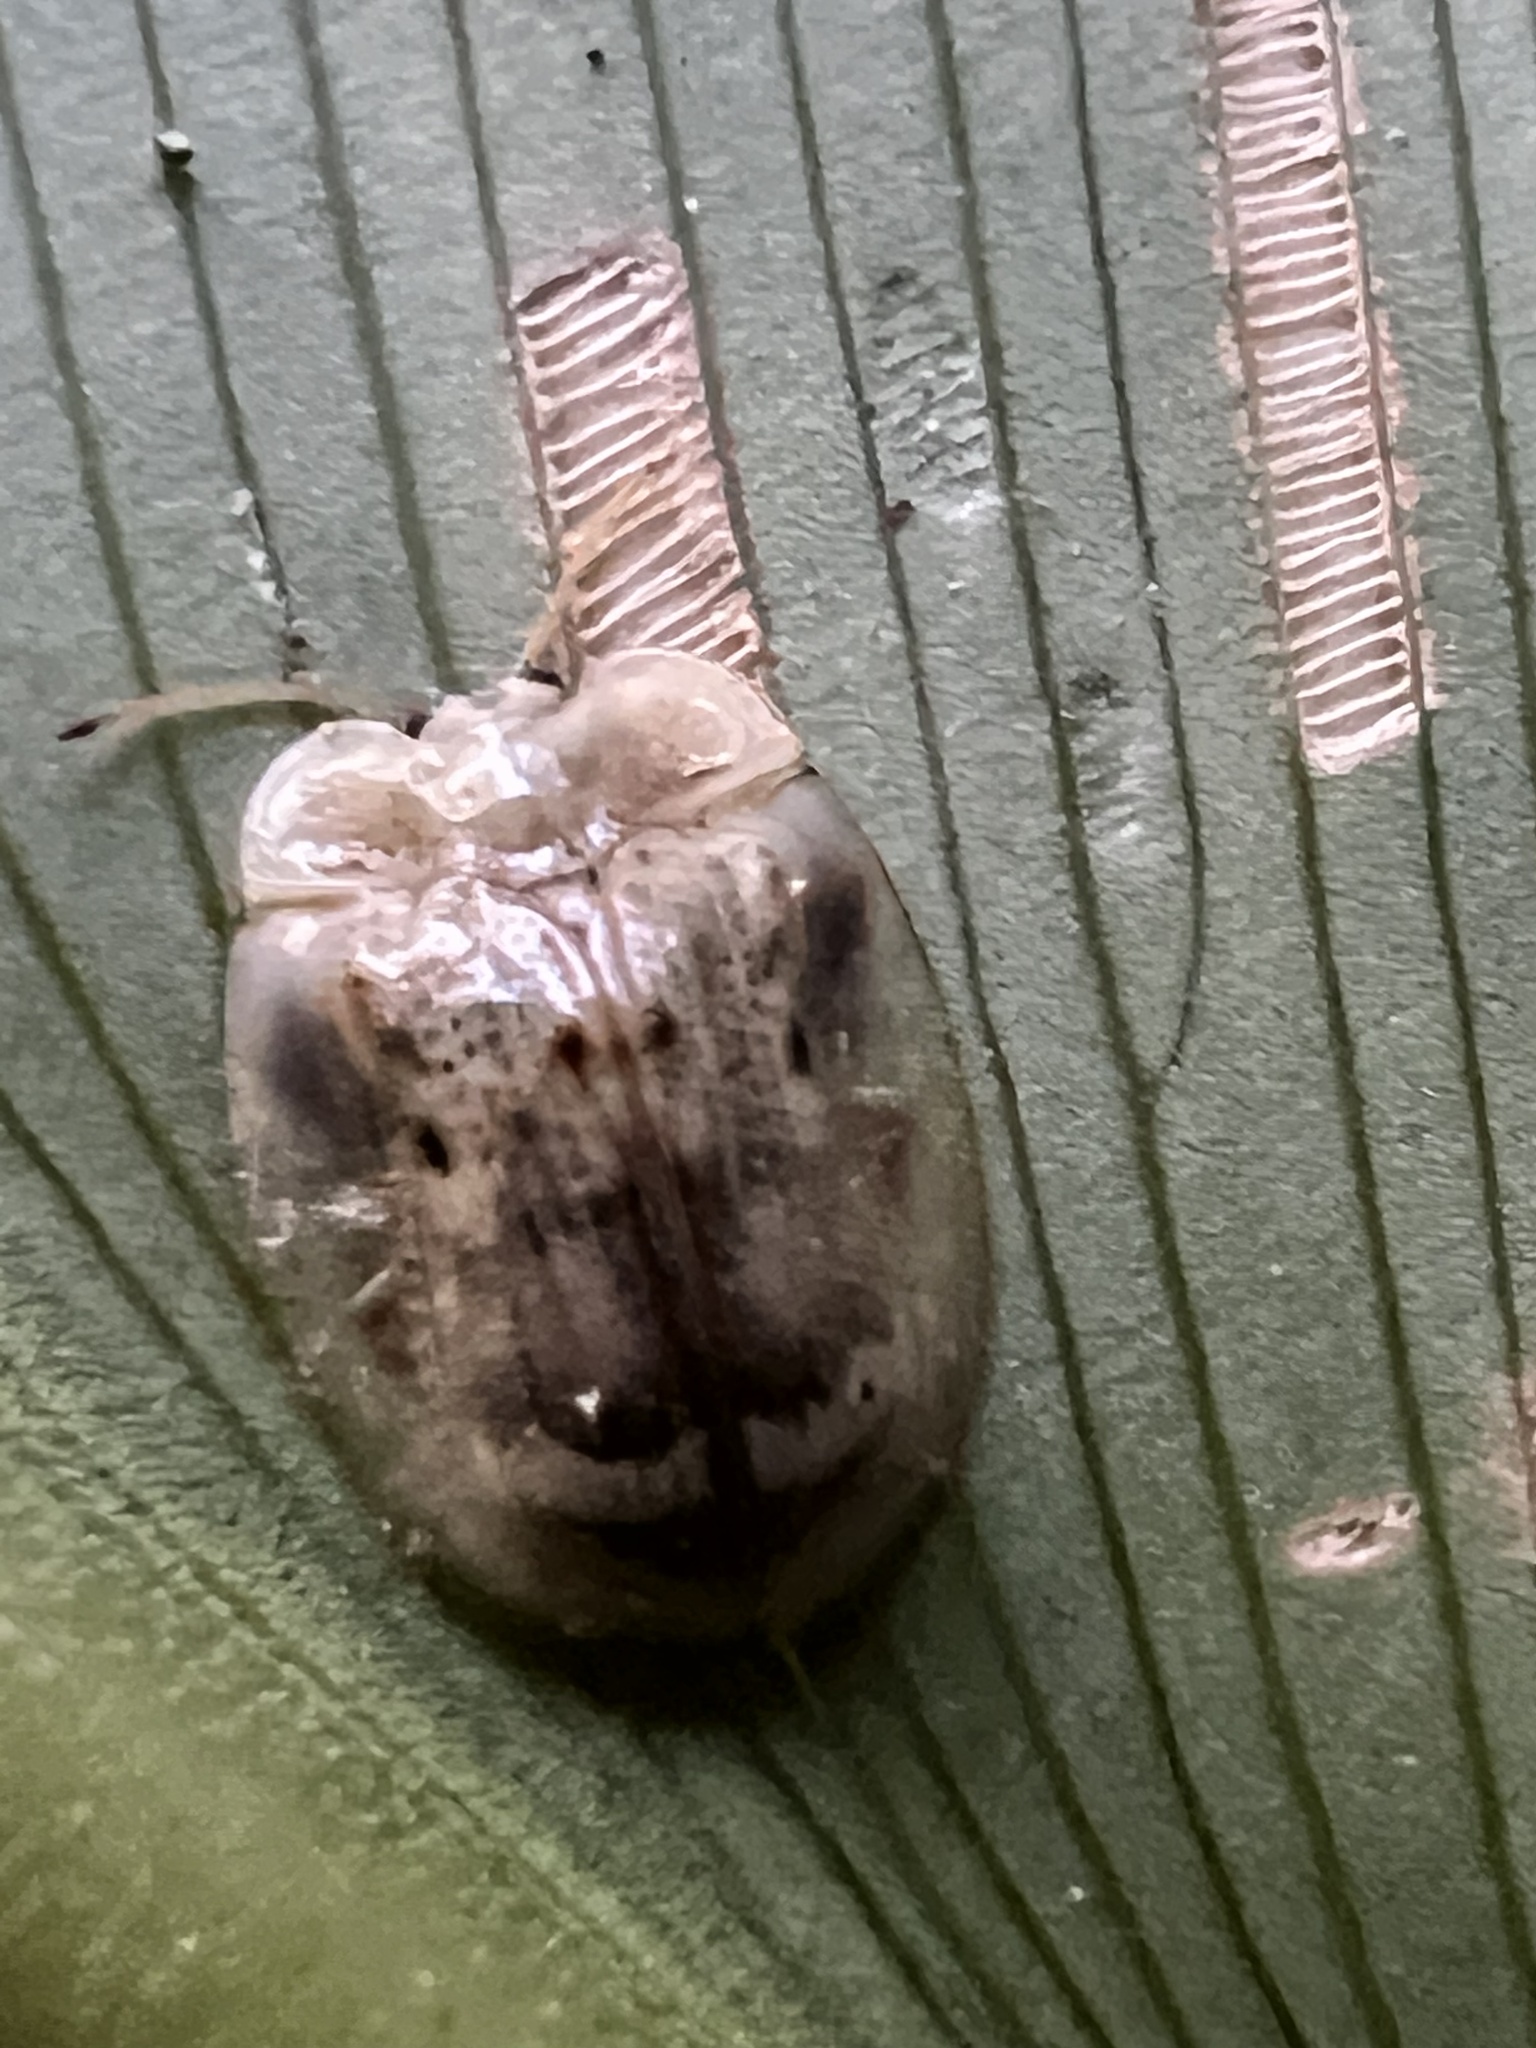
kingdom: Animalia
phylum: Arthropoda
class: Insecta
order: Coleoptera
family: Chrysomelidae
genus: Aslamidium
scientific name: Aslamidium impurum
